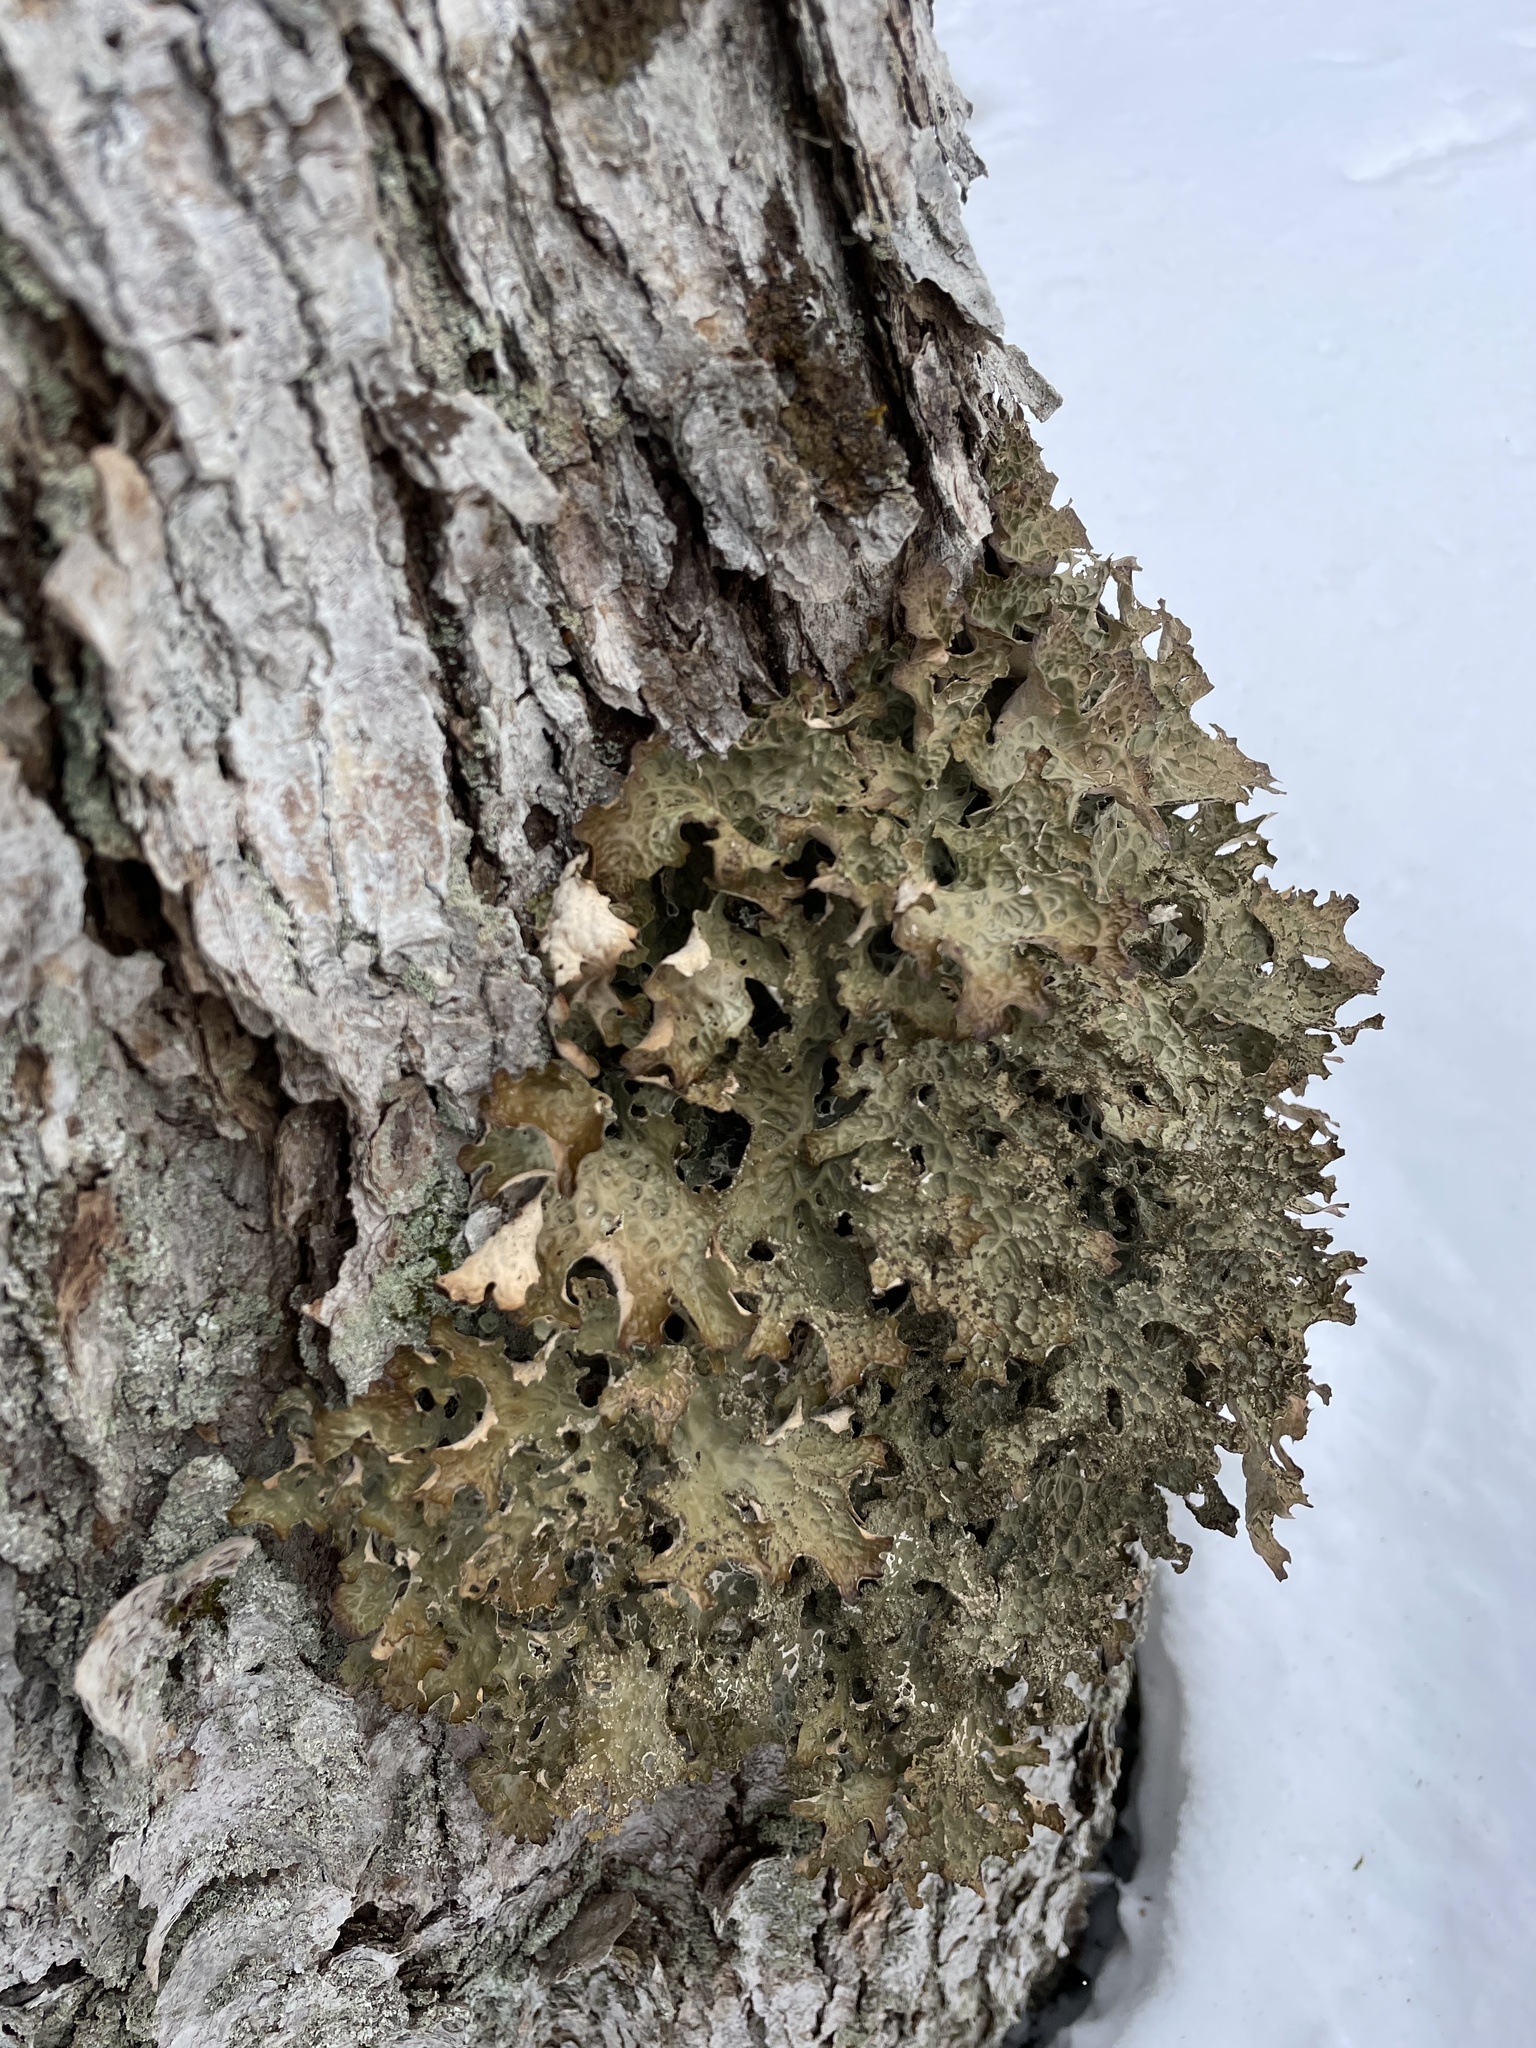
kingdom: Fungi
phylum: Ascomycota
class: Lecanoromycetes
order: Peltigerales
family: Lobariaceae
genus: Lobaria
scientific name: Lobaria pulmonaria
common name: Lungwort
